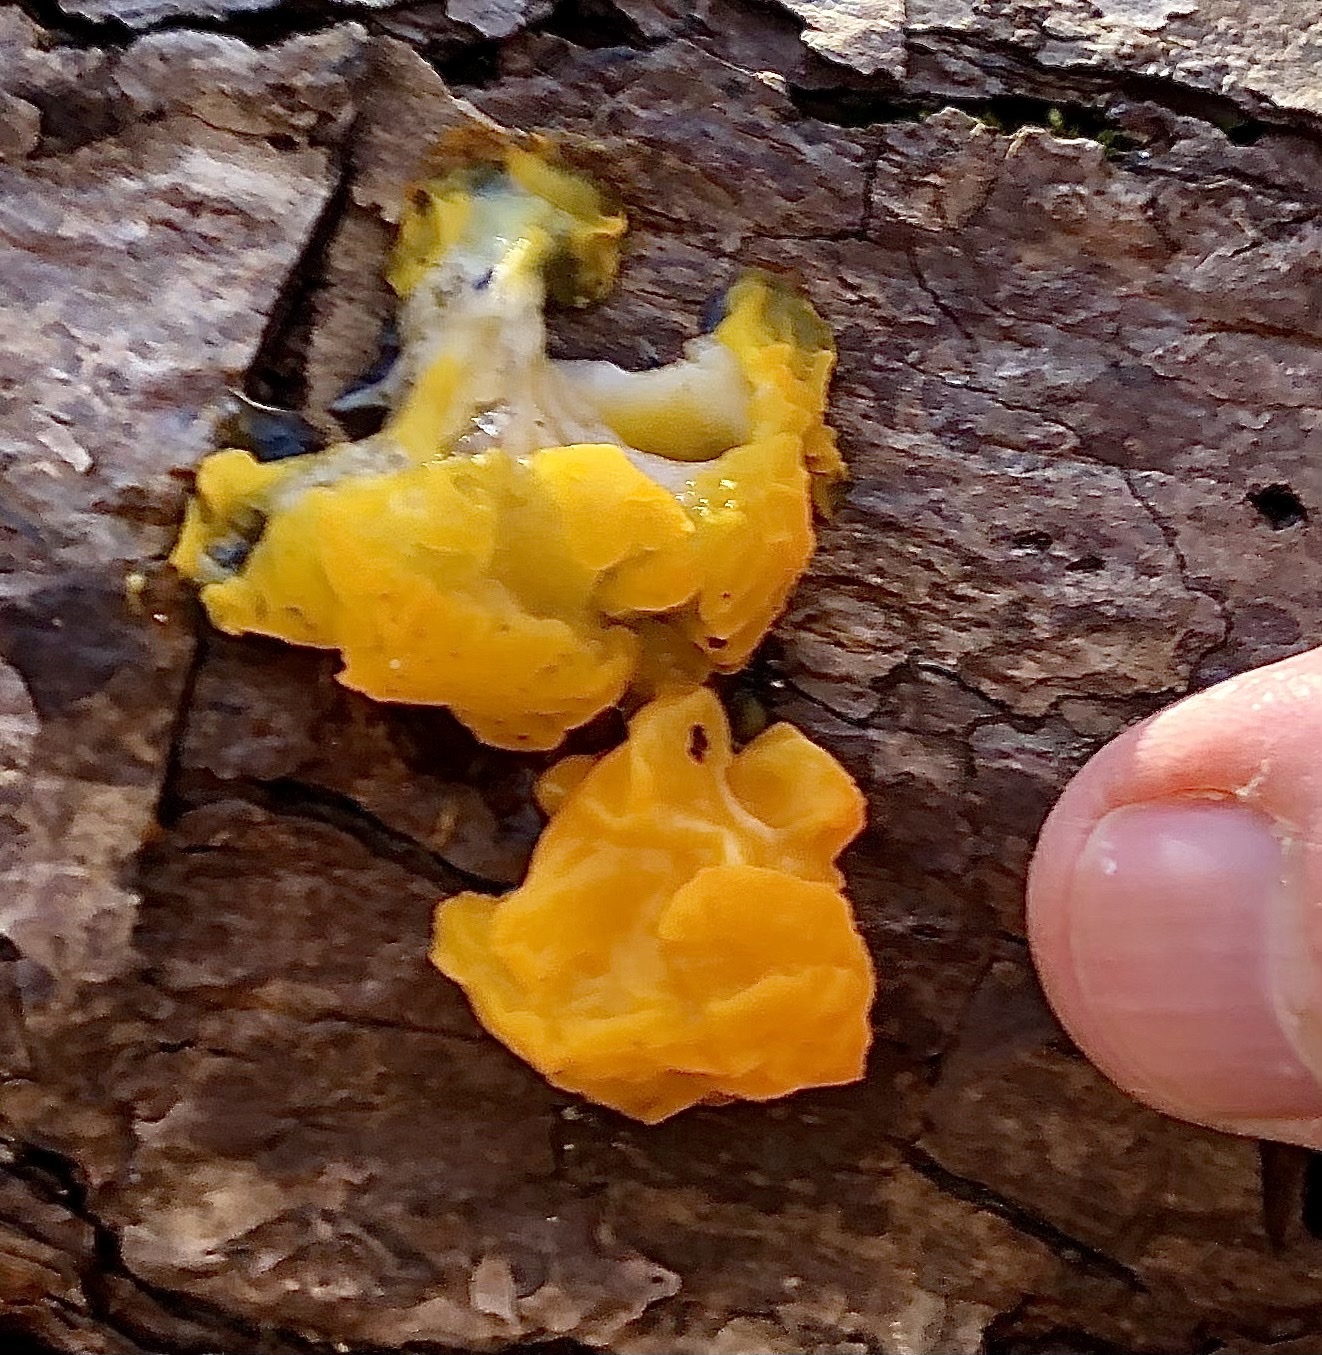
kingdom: Fungi
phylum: Basidiomycota
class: Dacrymycetes
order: Dacrymycetales
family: Dacrymycetaceae
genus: Dacrymyces
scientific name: Dacrymyces chrysospermus
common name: Orange jelly spot
